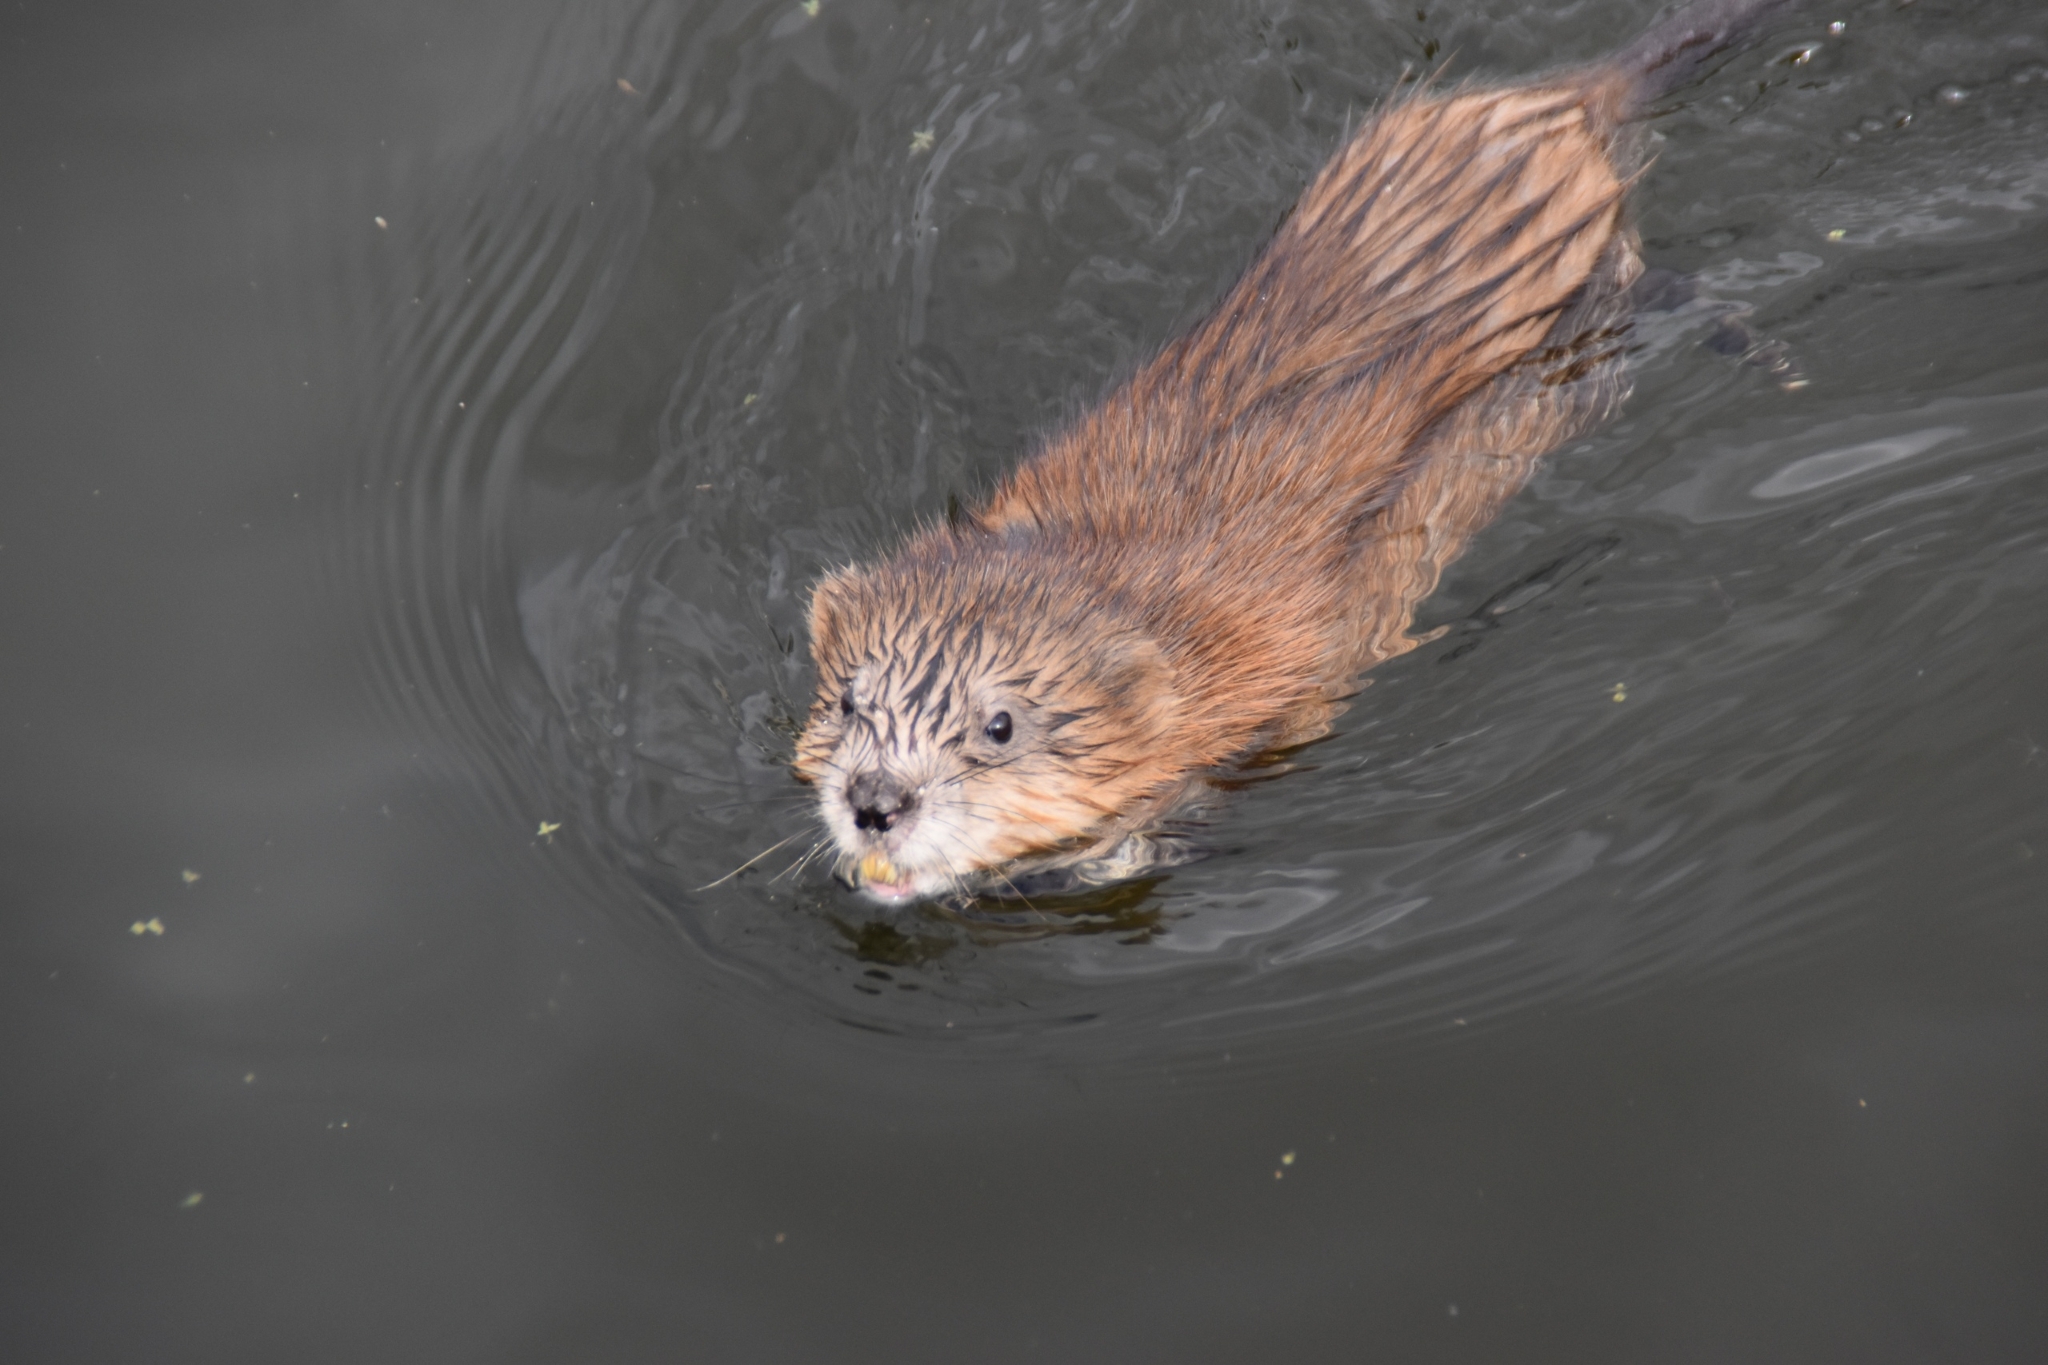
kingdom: Animalia
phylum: Chordata
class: Mammalia
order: Rodentia
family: Cricetidae
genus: Ondatra
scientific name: Ondatra zibethicus
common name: Muskrat
